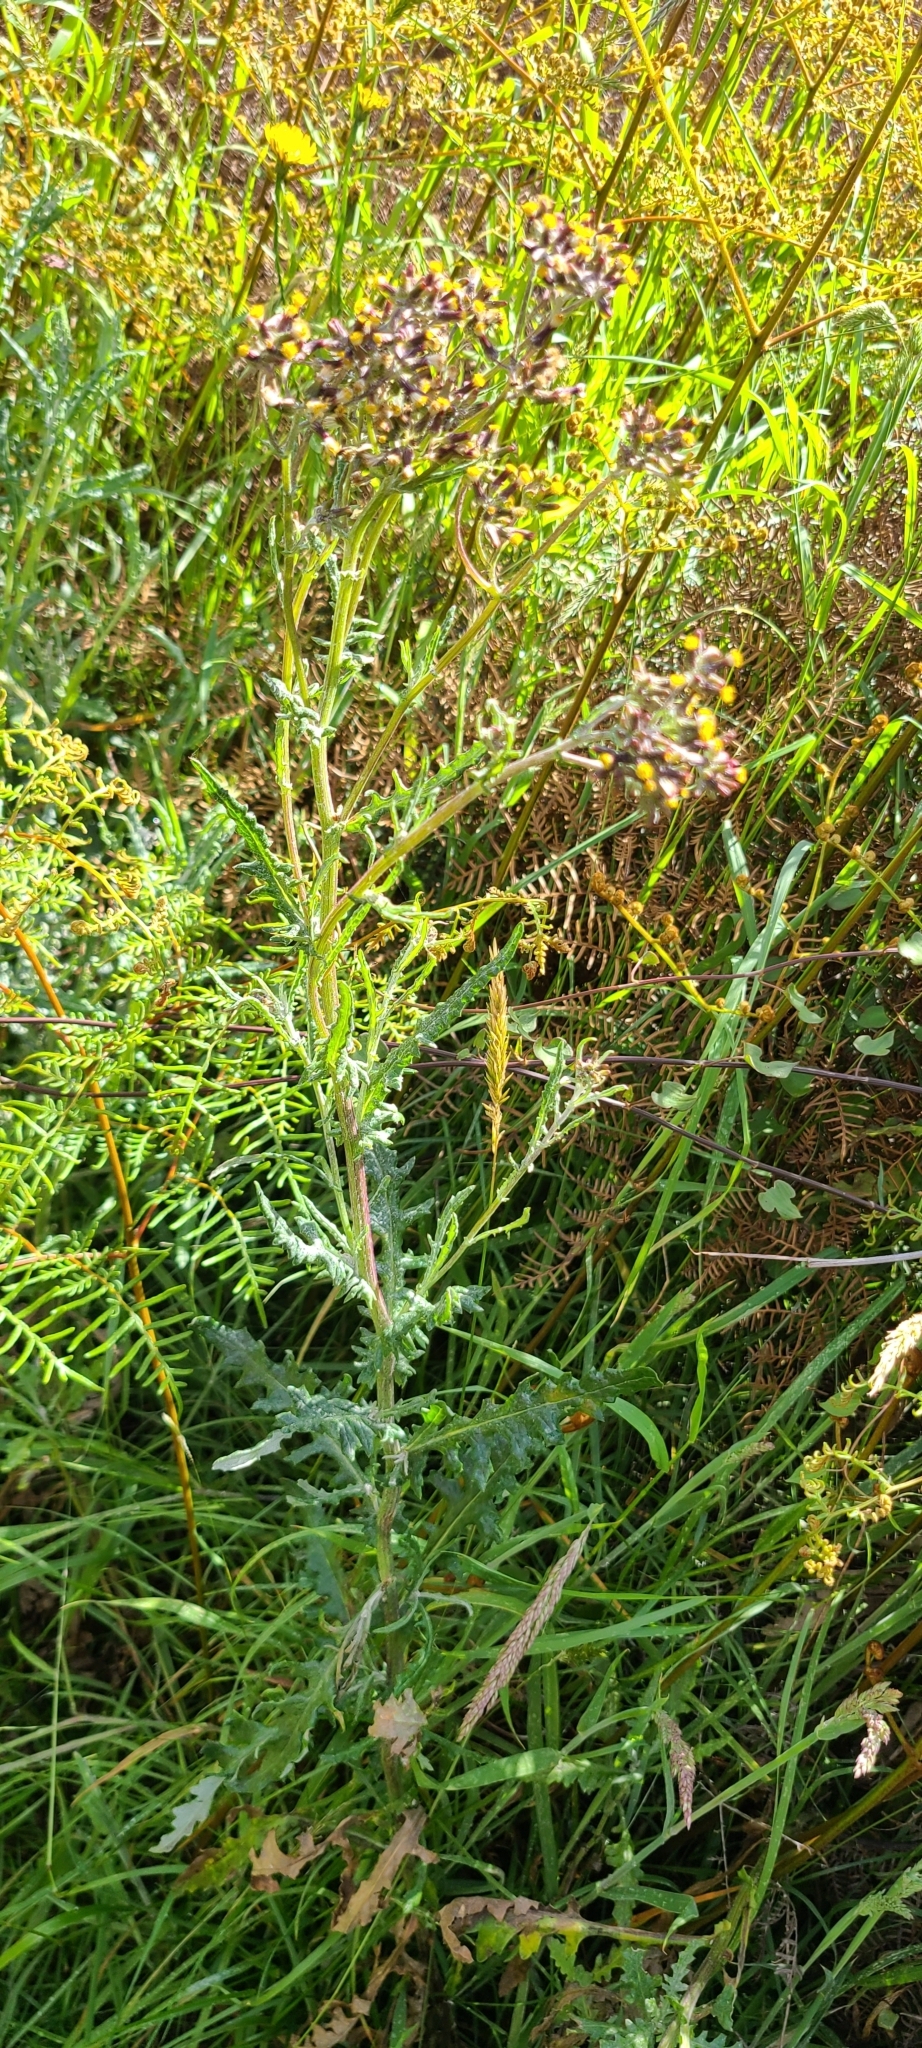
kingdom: Fungi
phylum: Basidiomycota
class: Pucciniomycetes
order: Pucciniales
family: Coleosporiaceae
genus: Coleosporium
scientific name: Coleosporium tussilaginis
